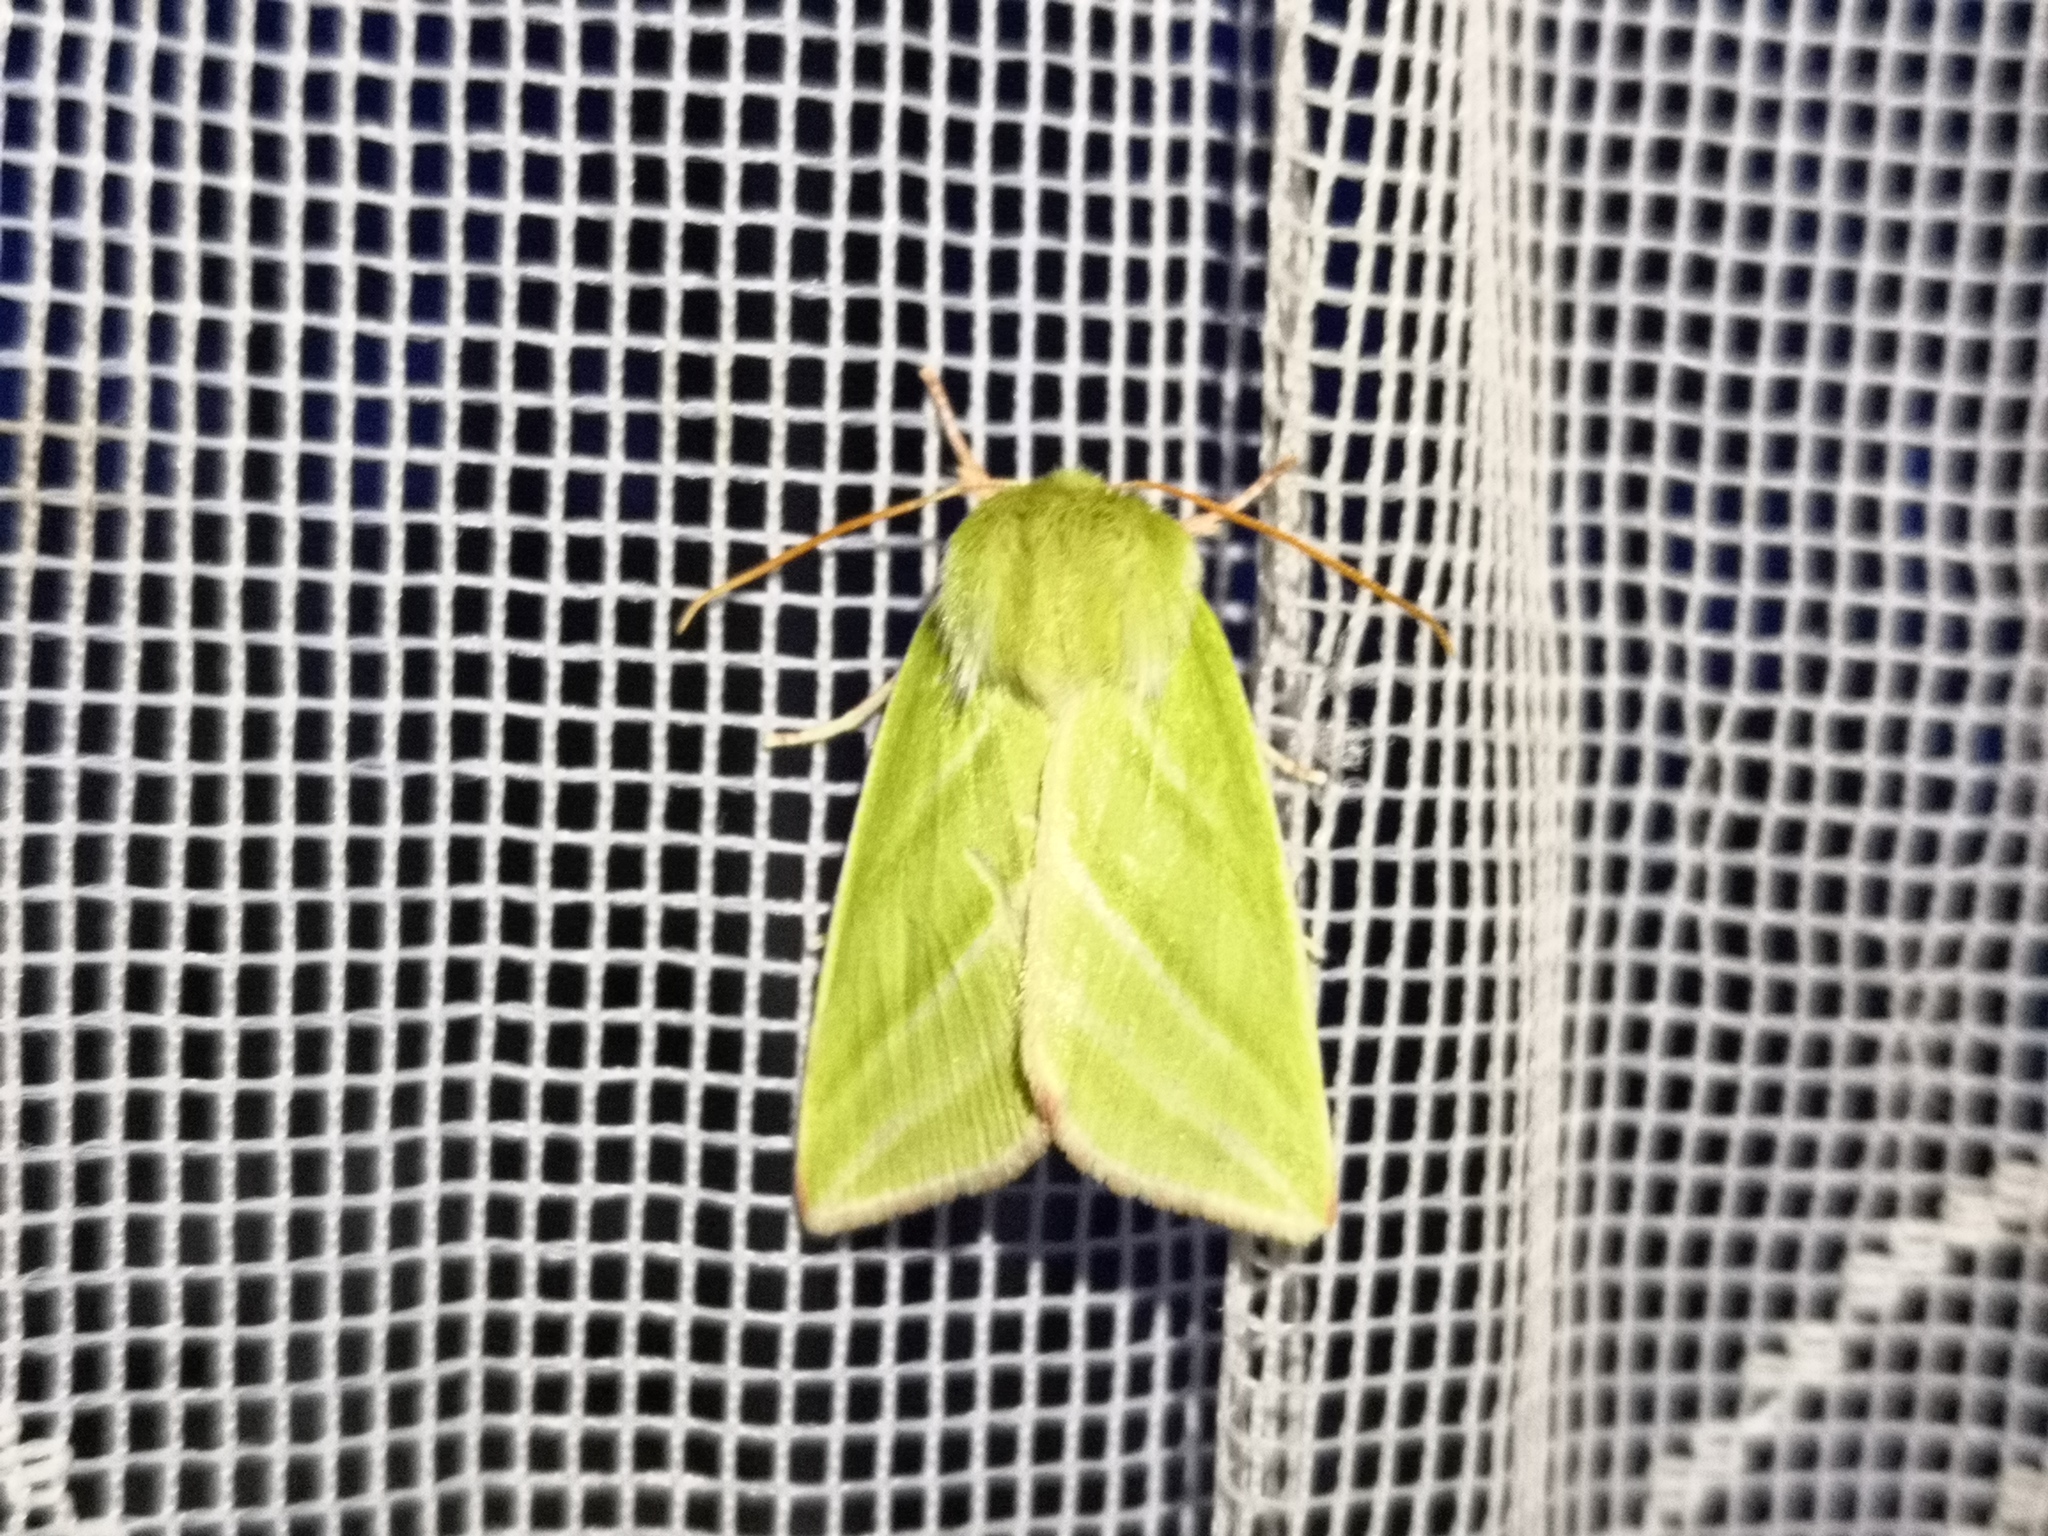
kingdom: Animalia
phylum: Arthropoda
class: Insecta
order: Lepidoptera
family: Nolidae
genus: Pseudoips
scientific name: Pseudoips prasinana
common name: Green silver-lines
